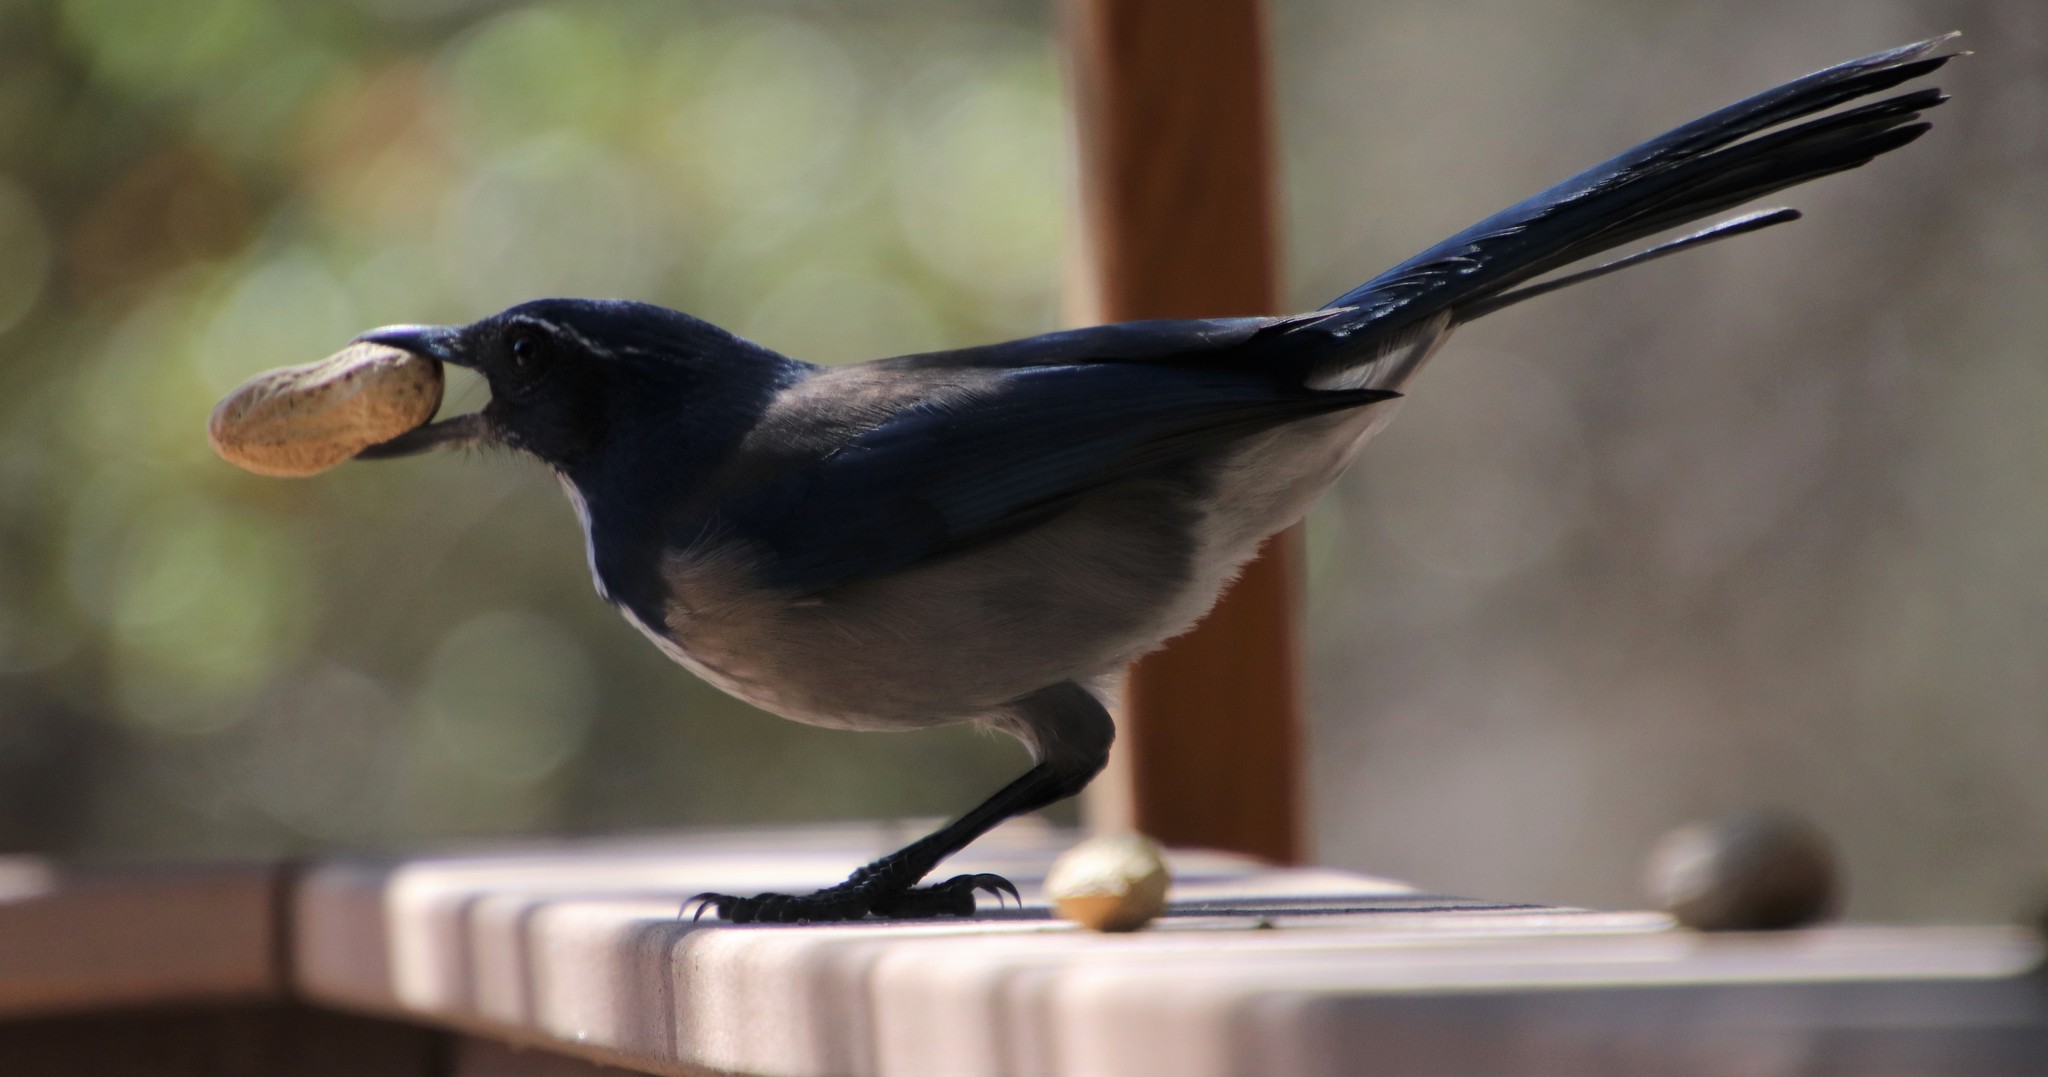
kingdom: Animalia
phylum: Chordata
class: Aves
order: Passeriformes
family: Corvidae
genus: Aphelocoma
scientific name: Aphelocoma californica
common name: California scrub-jay
